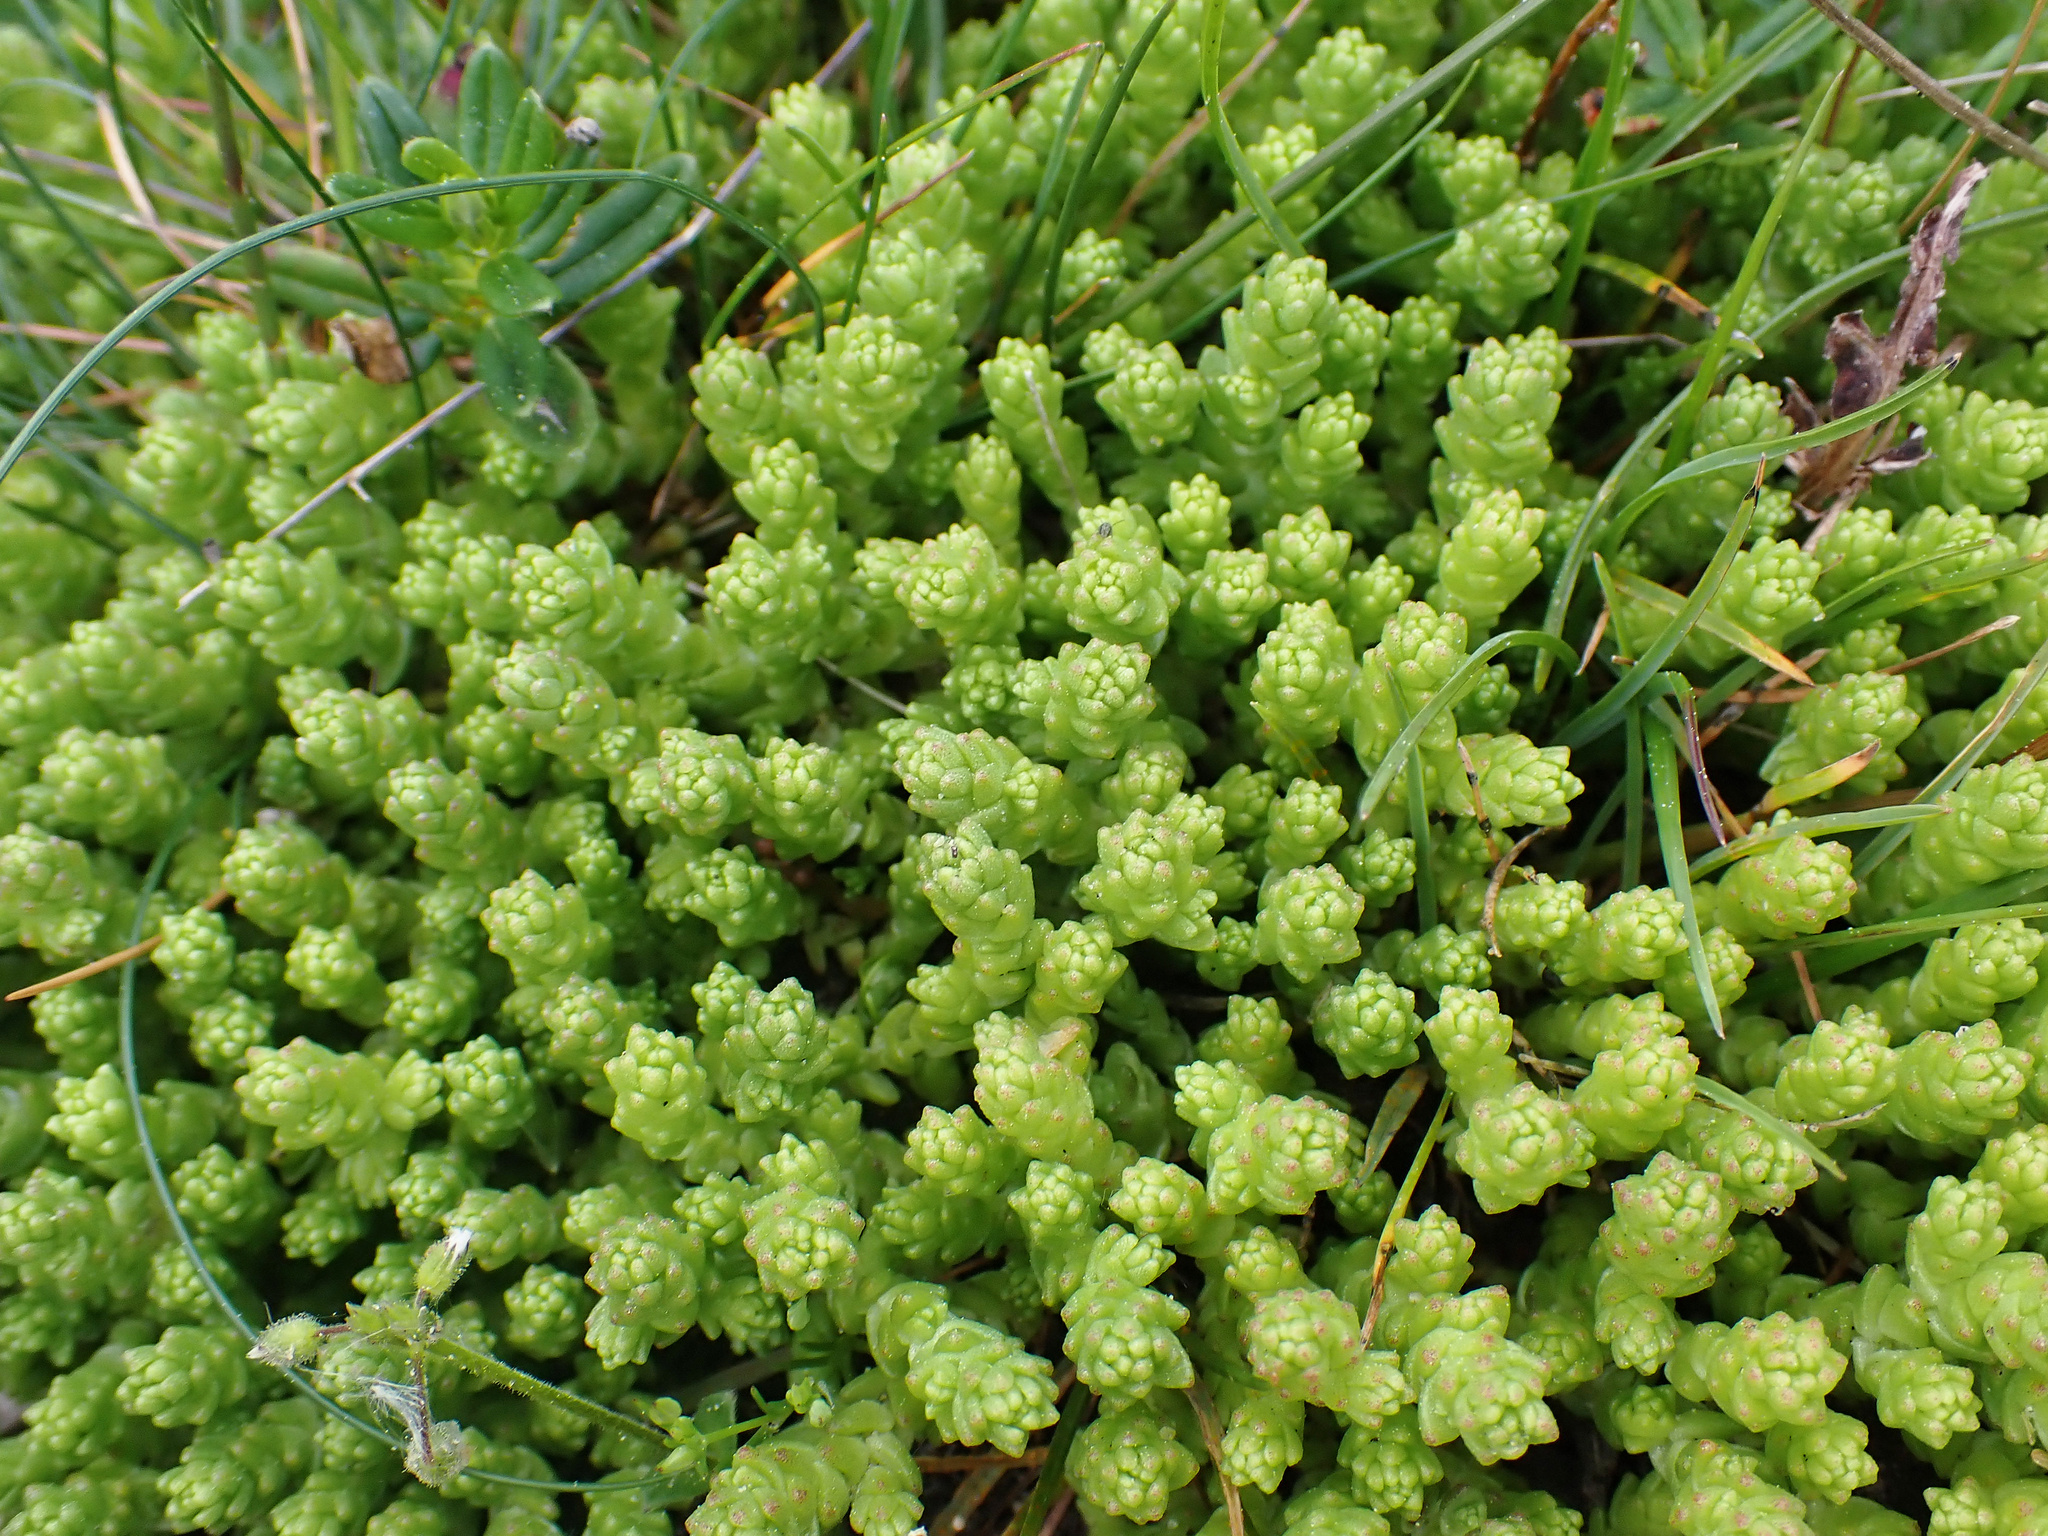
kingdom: Plantae
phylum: Tracheophyta
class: Magnoliopsida
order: Saxifragales
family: Crassulaceae
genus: Sedum
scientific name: Sedum acre
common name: Biting stonecrop
